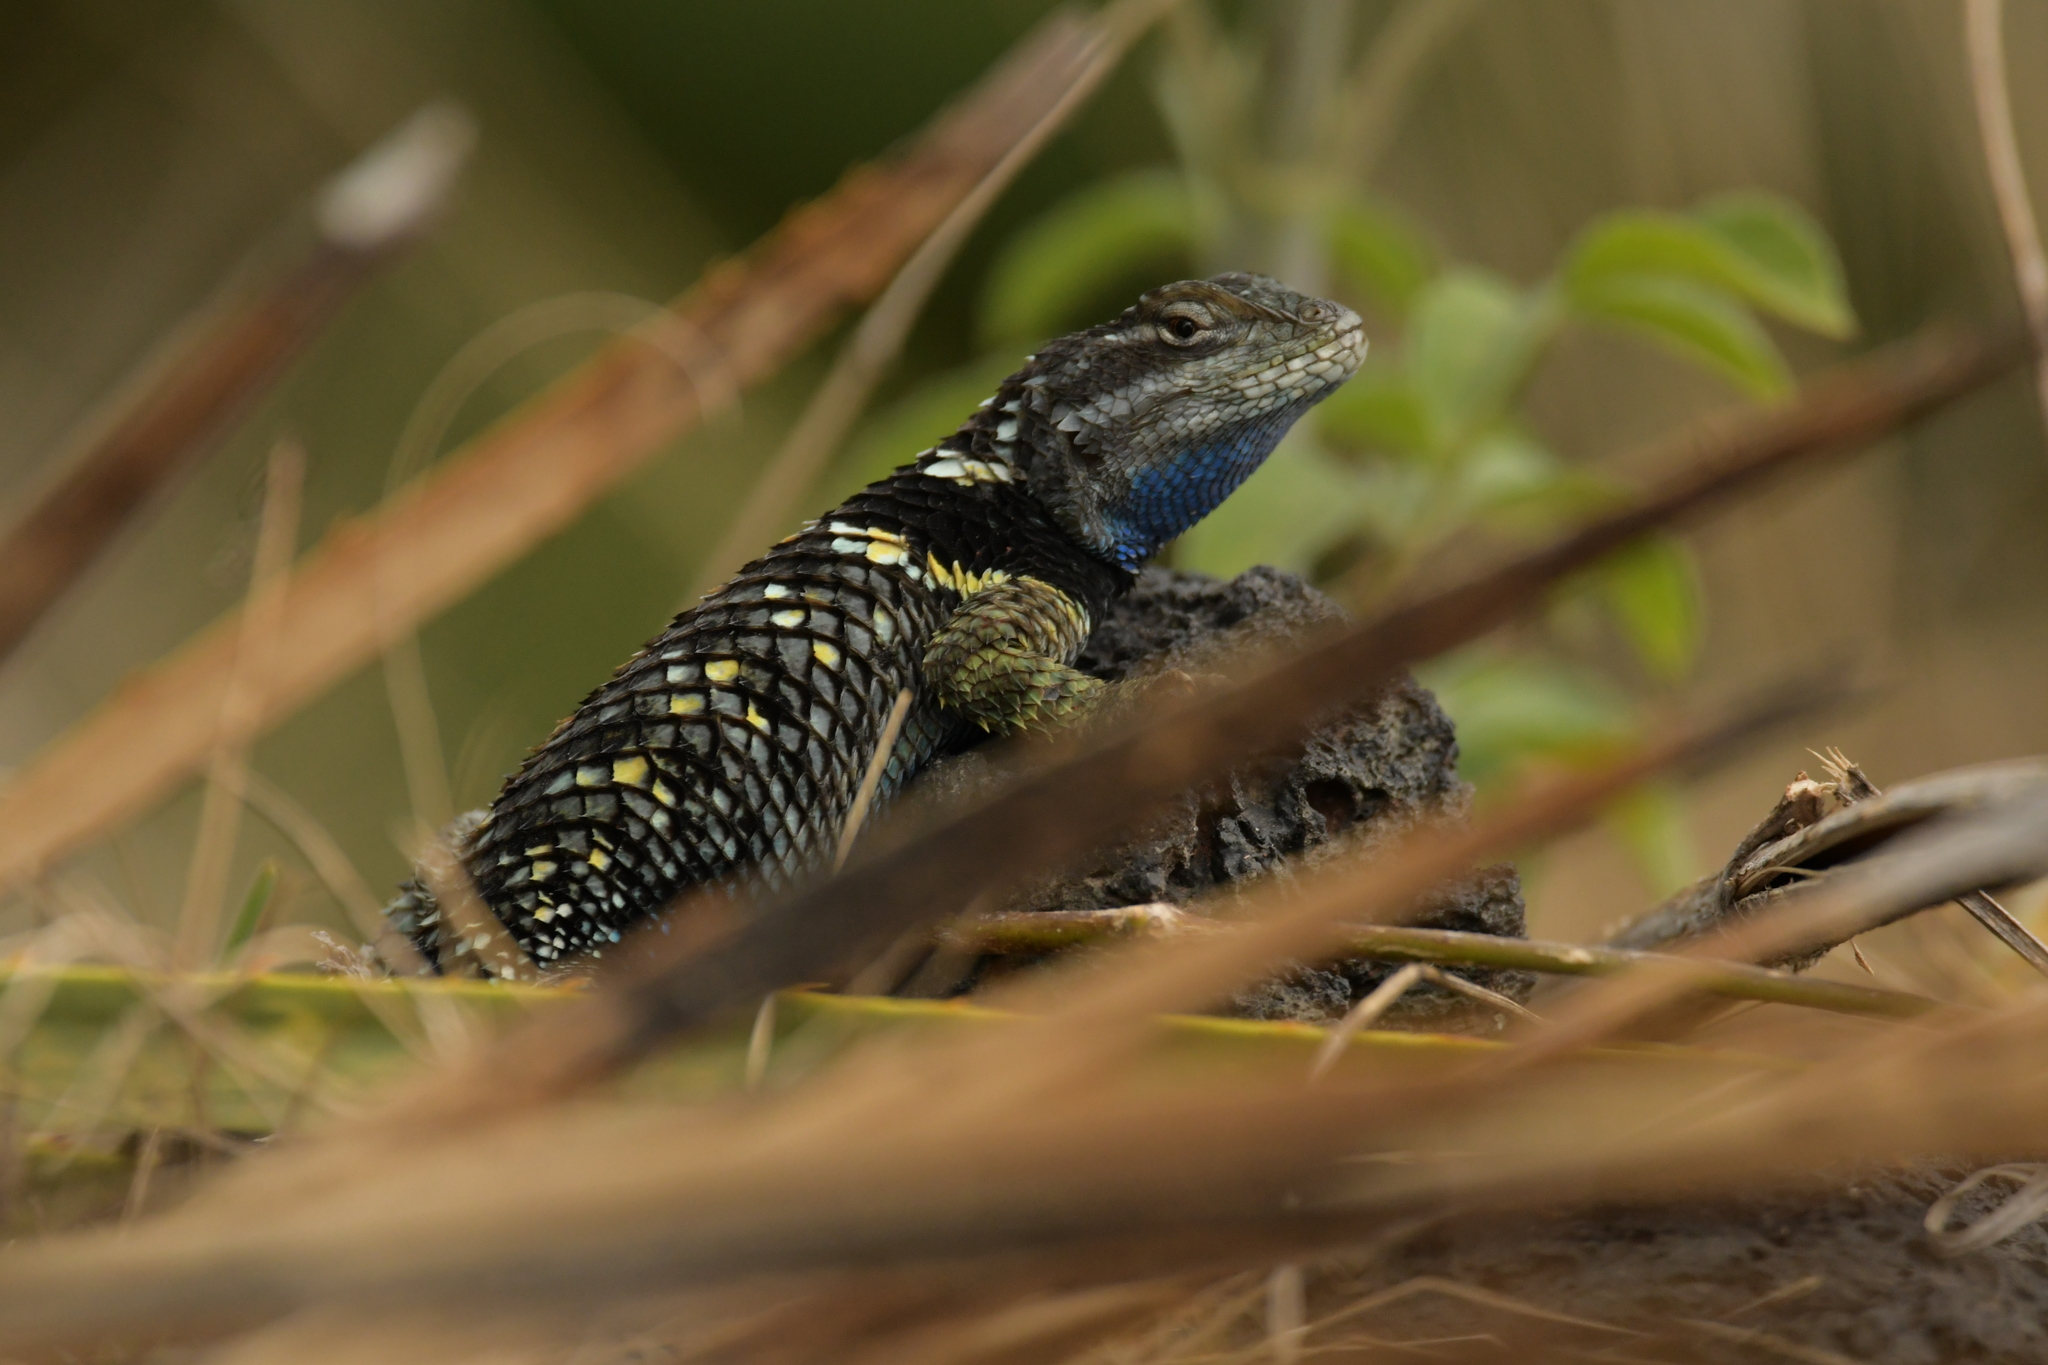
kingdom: Animalia
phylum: Chordata
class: Squamata
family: Phrynosomatidae
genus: Sceloporus
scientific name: Sceloporus torquatus
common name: Central plateau torquate lizard [melanogaster]
